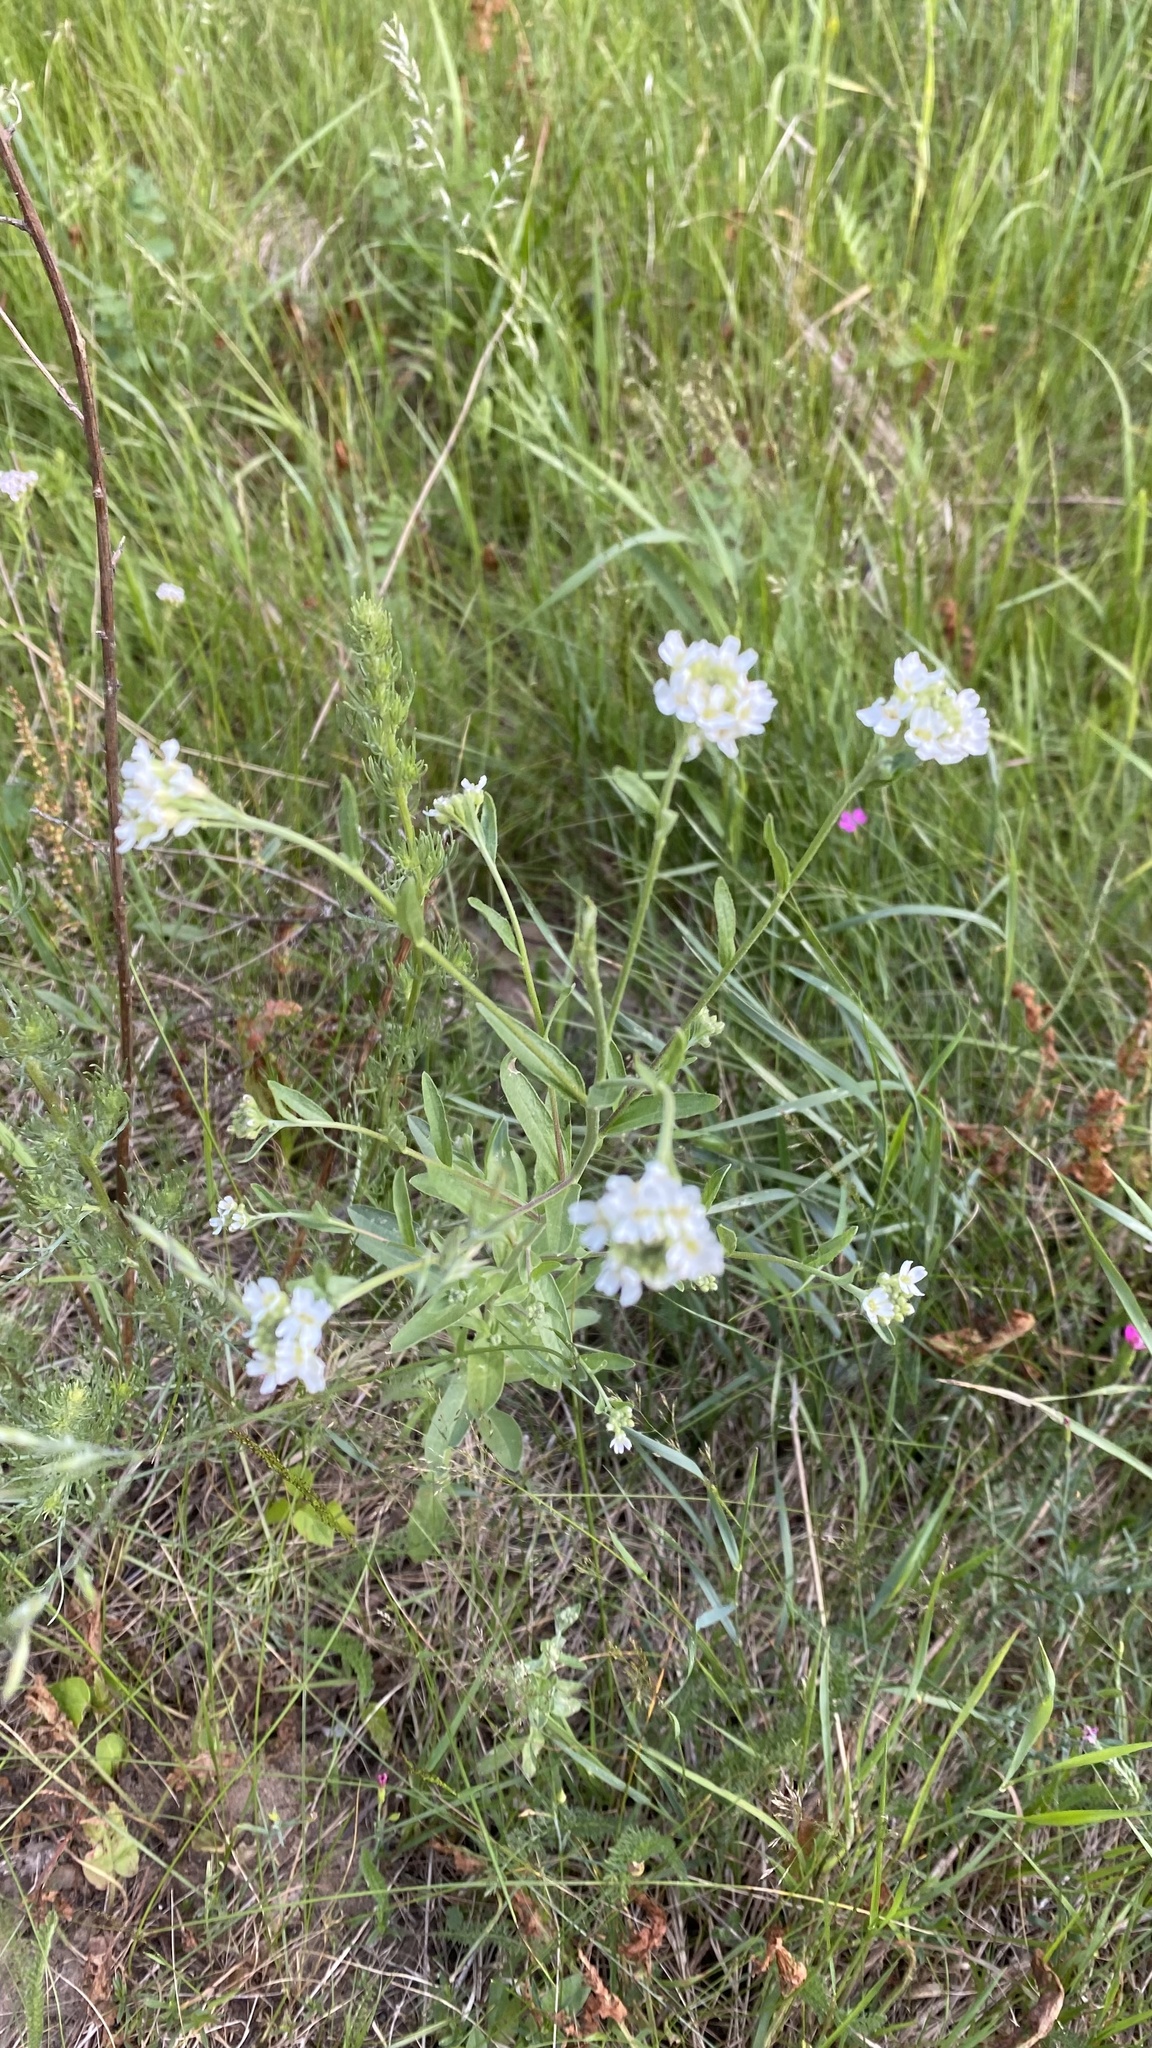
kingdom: Plantae
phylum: Tracheophyta
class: Magnoliopsida
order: Brassicales
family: Brassicaceae
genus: Berteroa
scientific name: Berteroa incana
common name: Hoary alison
